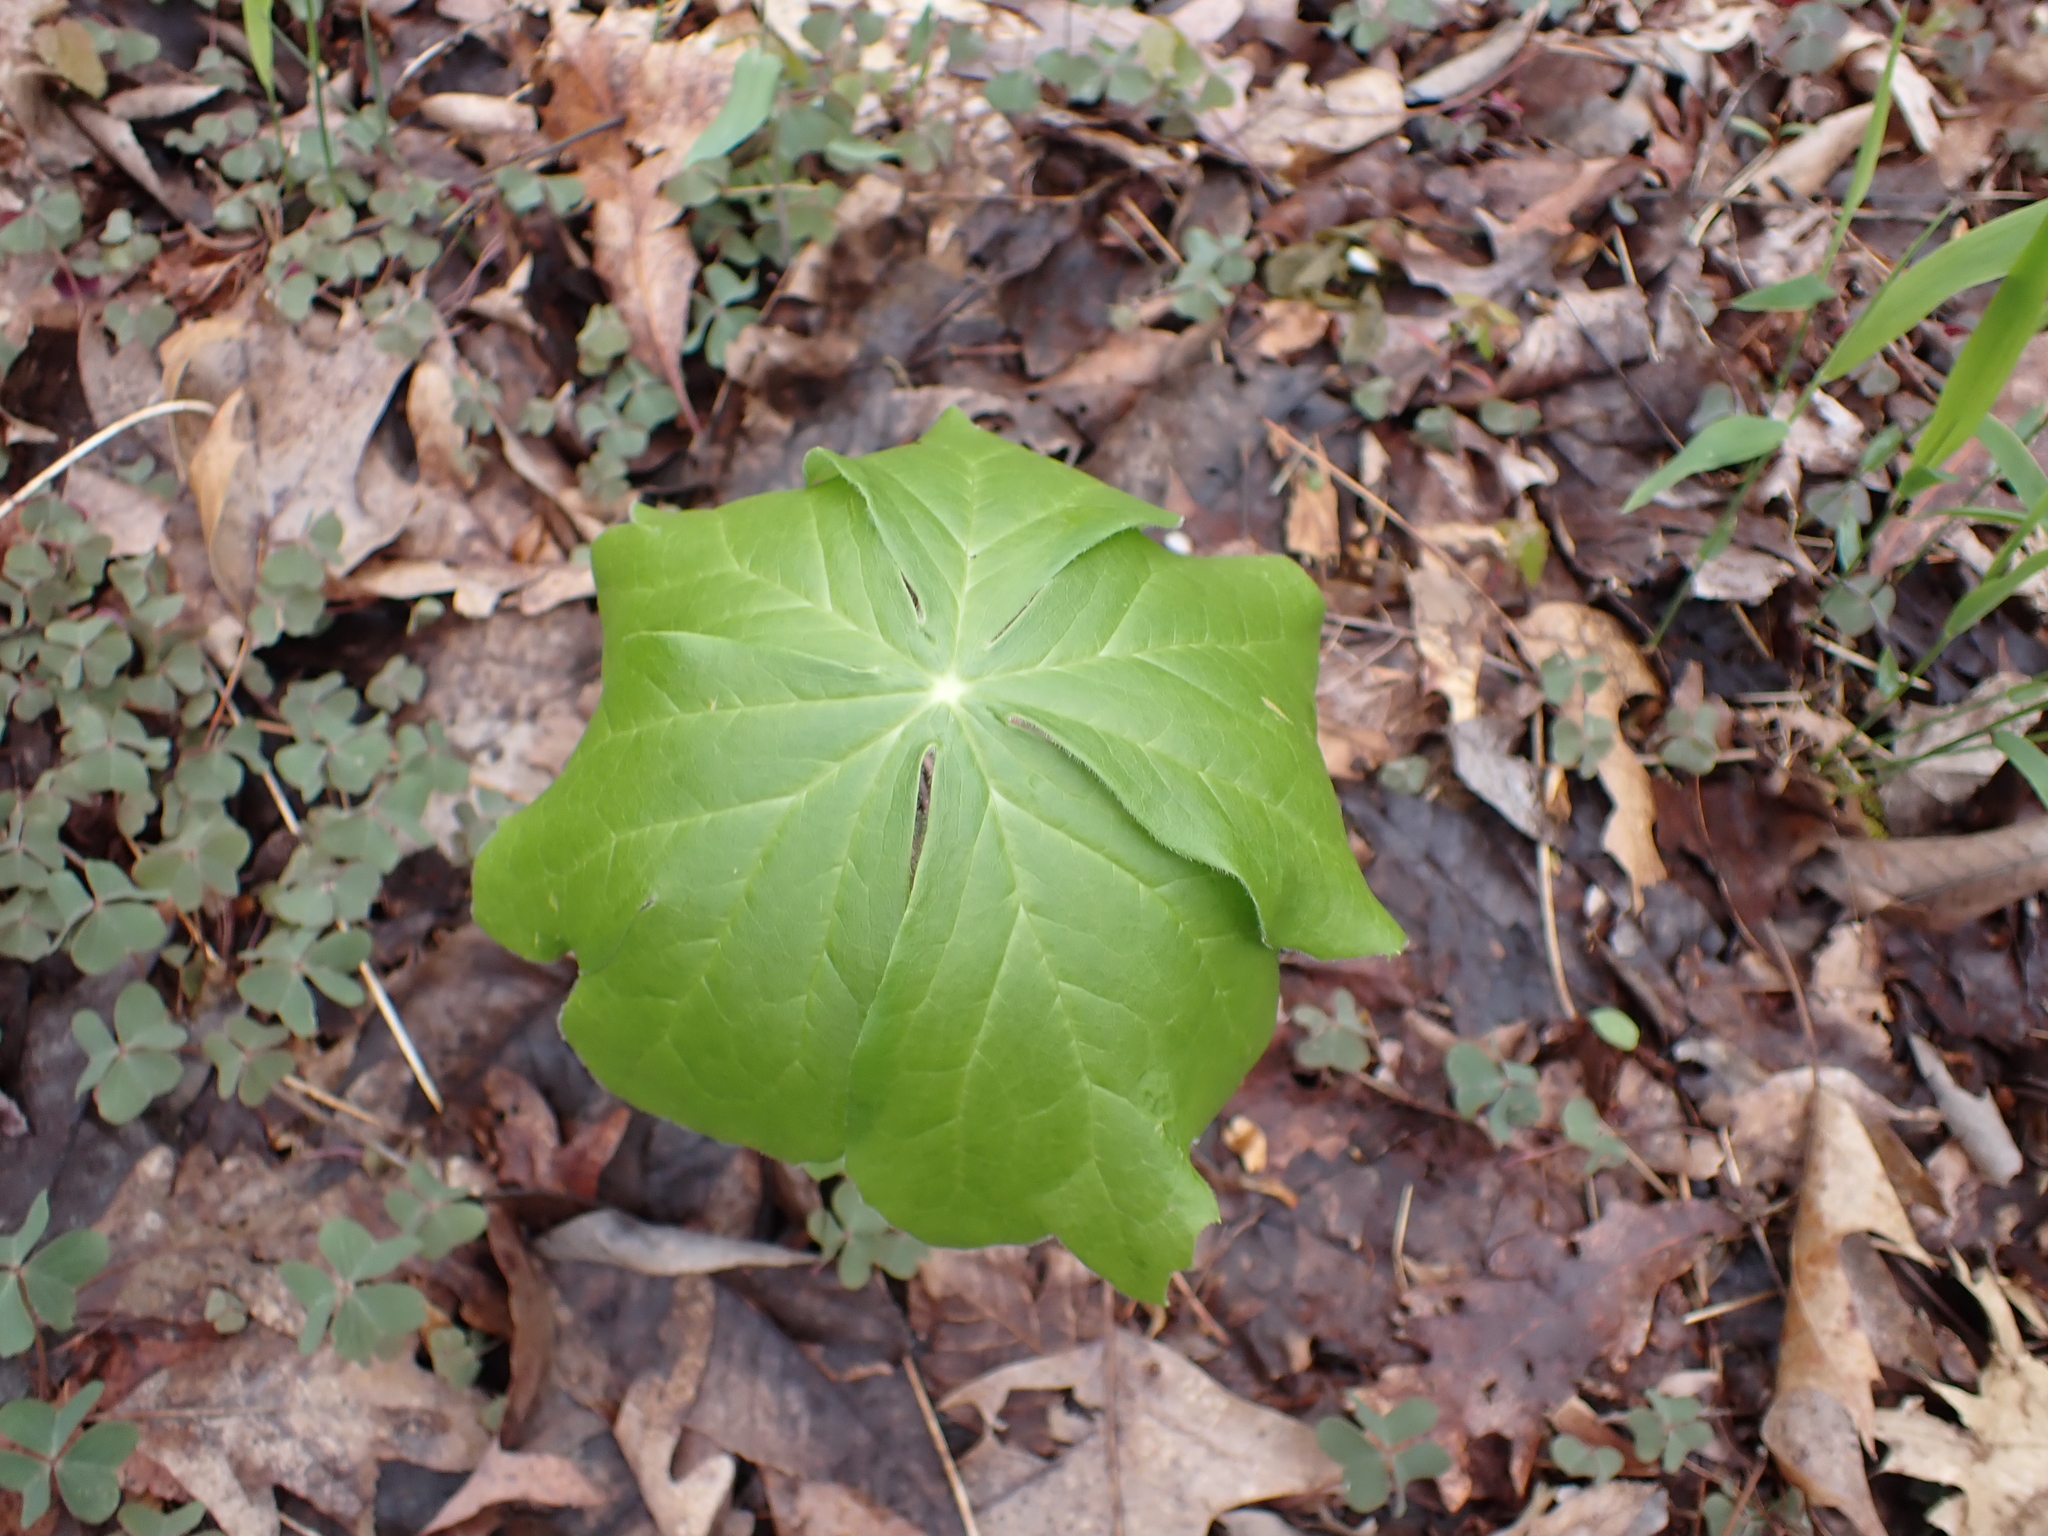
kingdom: Plantae
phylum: Tracheophyta
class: Magnoliopsida
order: Ranunculales
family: Berberidaceae
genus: Podophyllum
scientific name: Podophyllum peltatum
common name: Wild mandrake
